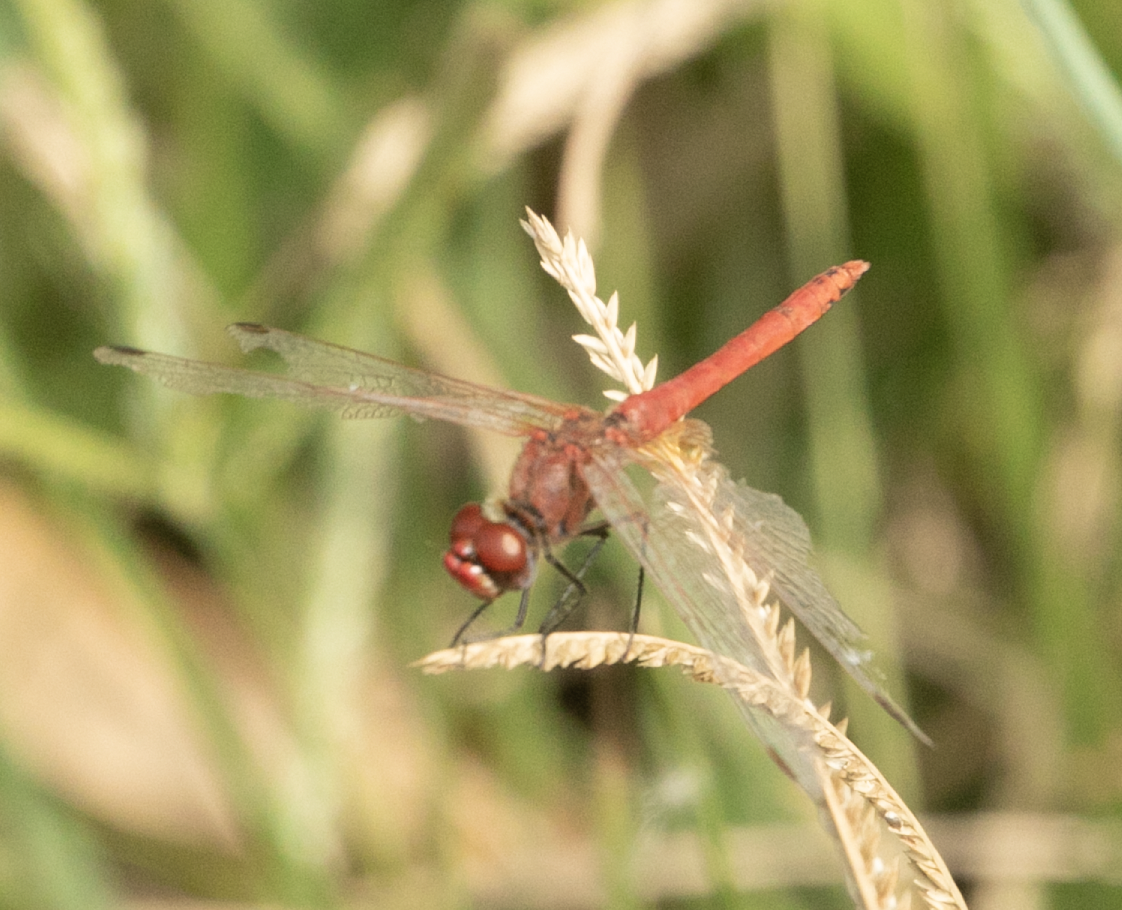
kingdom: Animalia
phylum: Arthropoda
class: Insecta
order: Odonata
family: Libellulidae
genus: Sympetrum
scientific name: Sympetrum fonscolombii
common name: Red-veined darter
